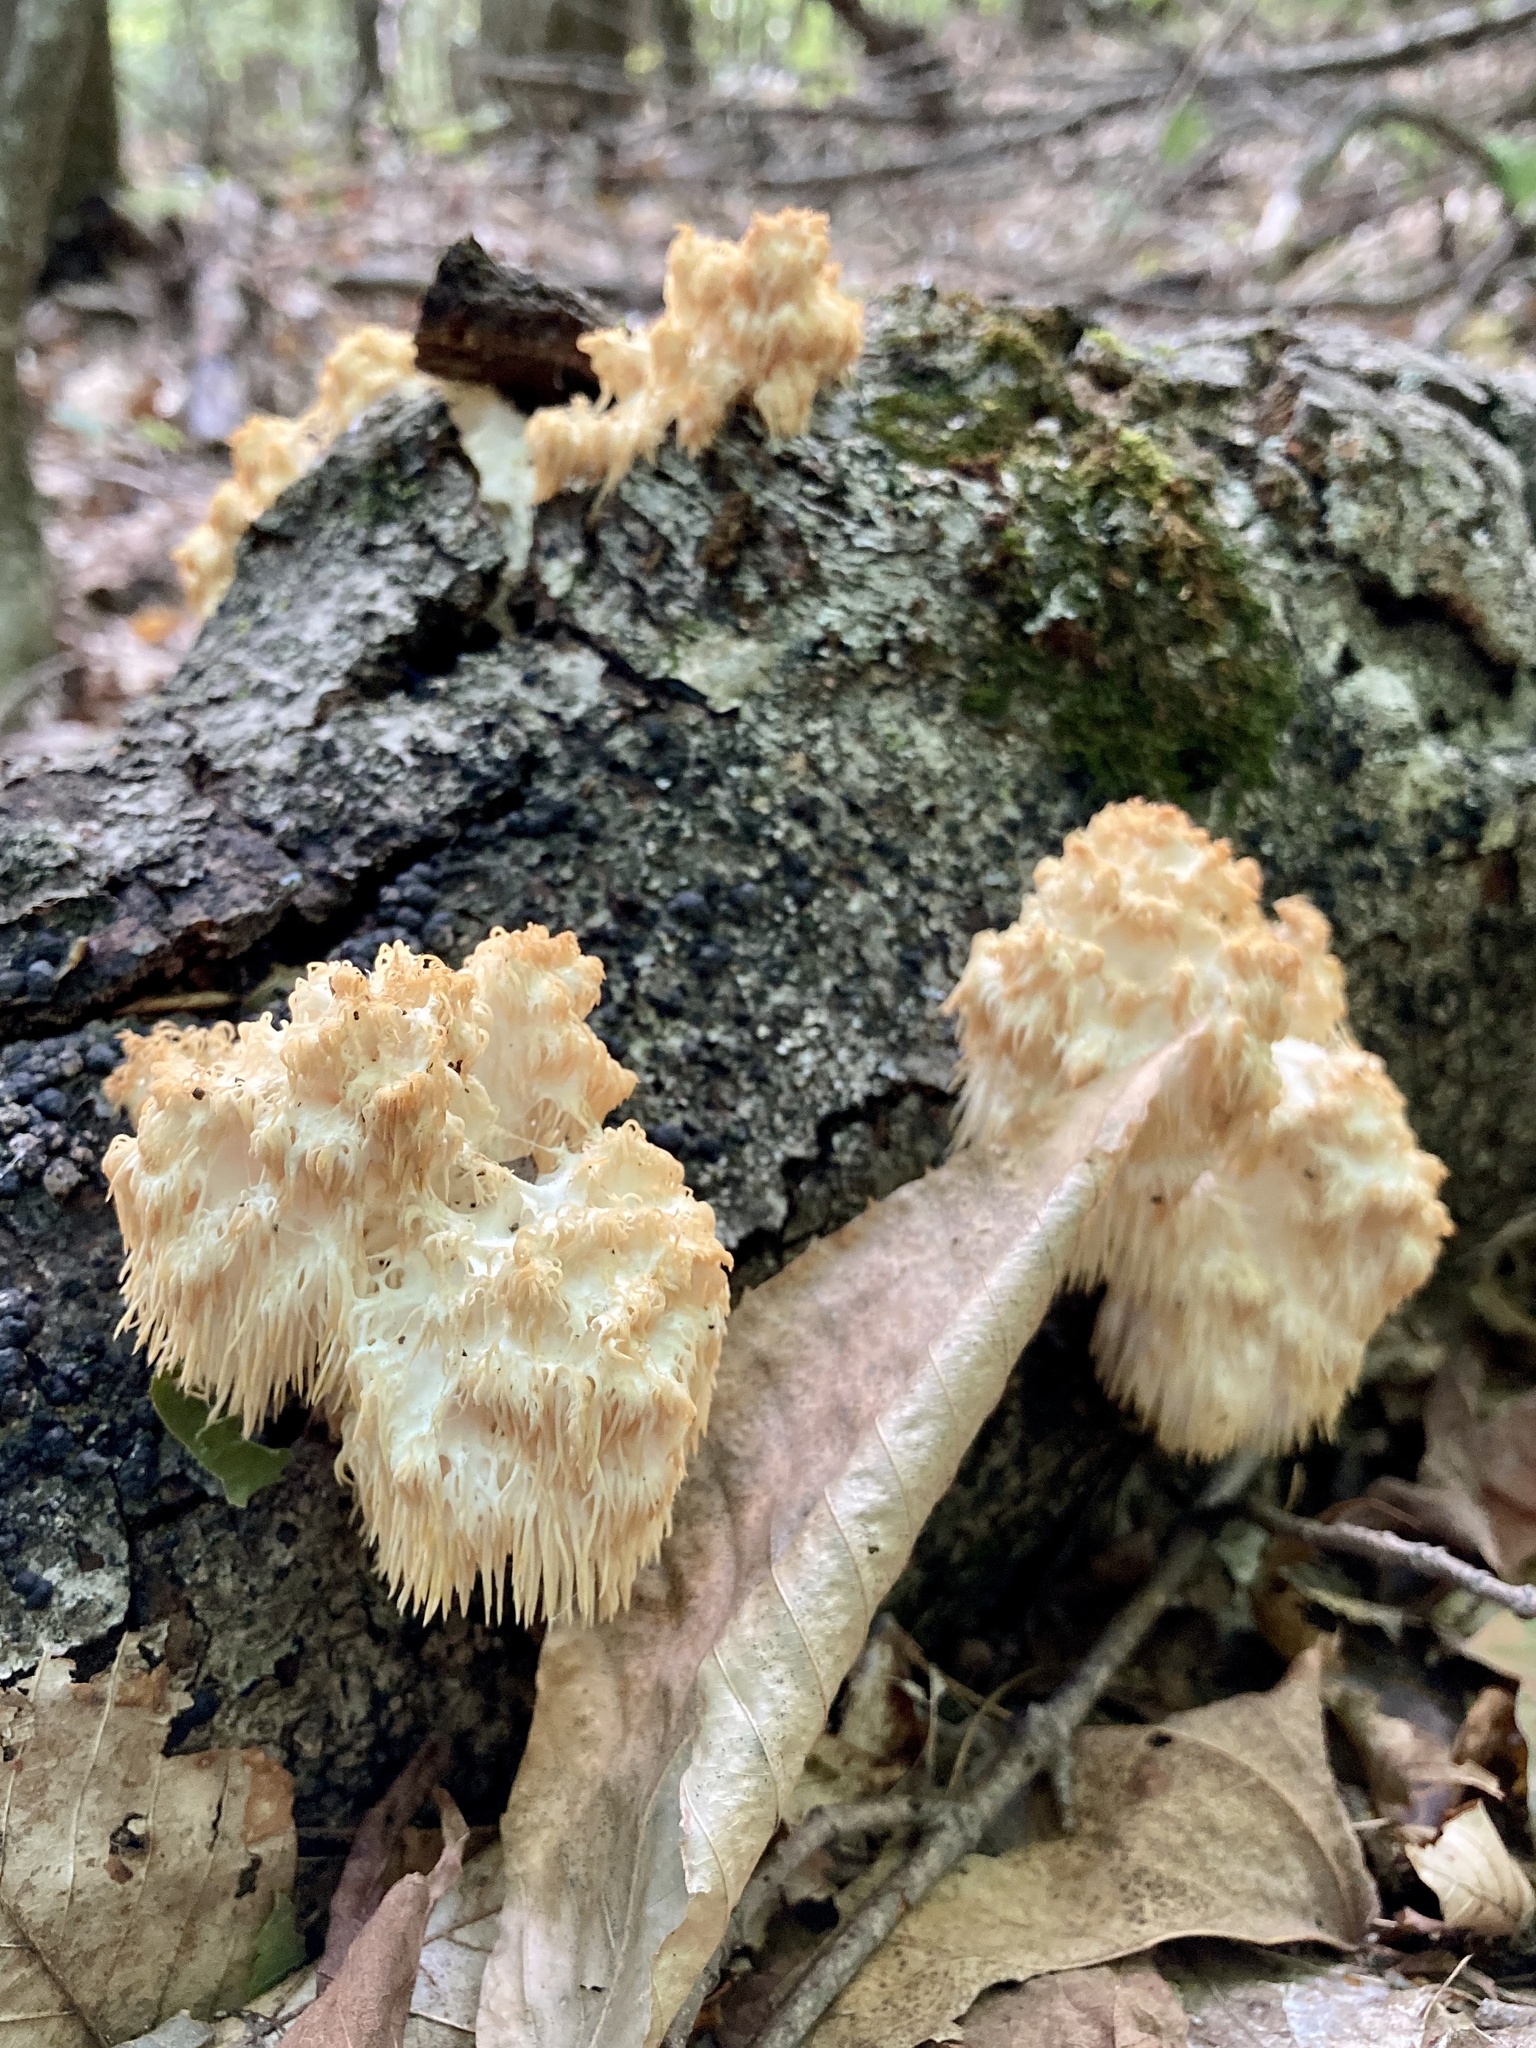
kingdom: Fungi
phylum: Basidiomycota
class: Agaricomycetes
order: Russulales
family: Hericiaceae
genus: Hericium
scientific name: Hericium americanum
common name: Bear's head tooth
